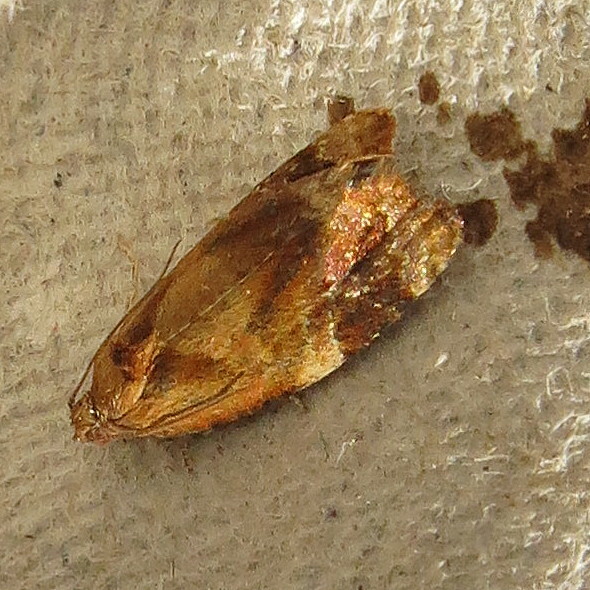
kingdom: Animalia
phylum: Arthropoda
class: Insecta
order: Lepidoptera
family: Tortricidae
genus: Ditula
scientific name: Ditula angustiorana
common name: Red-barred tortrix
